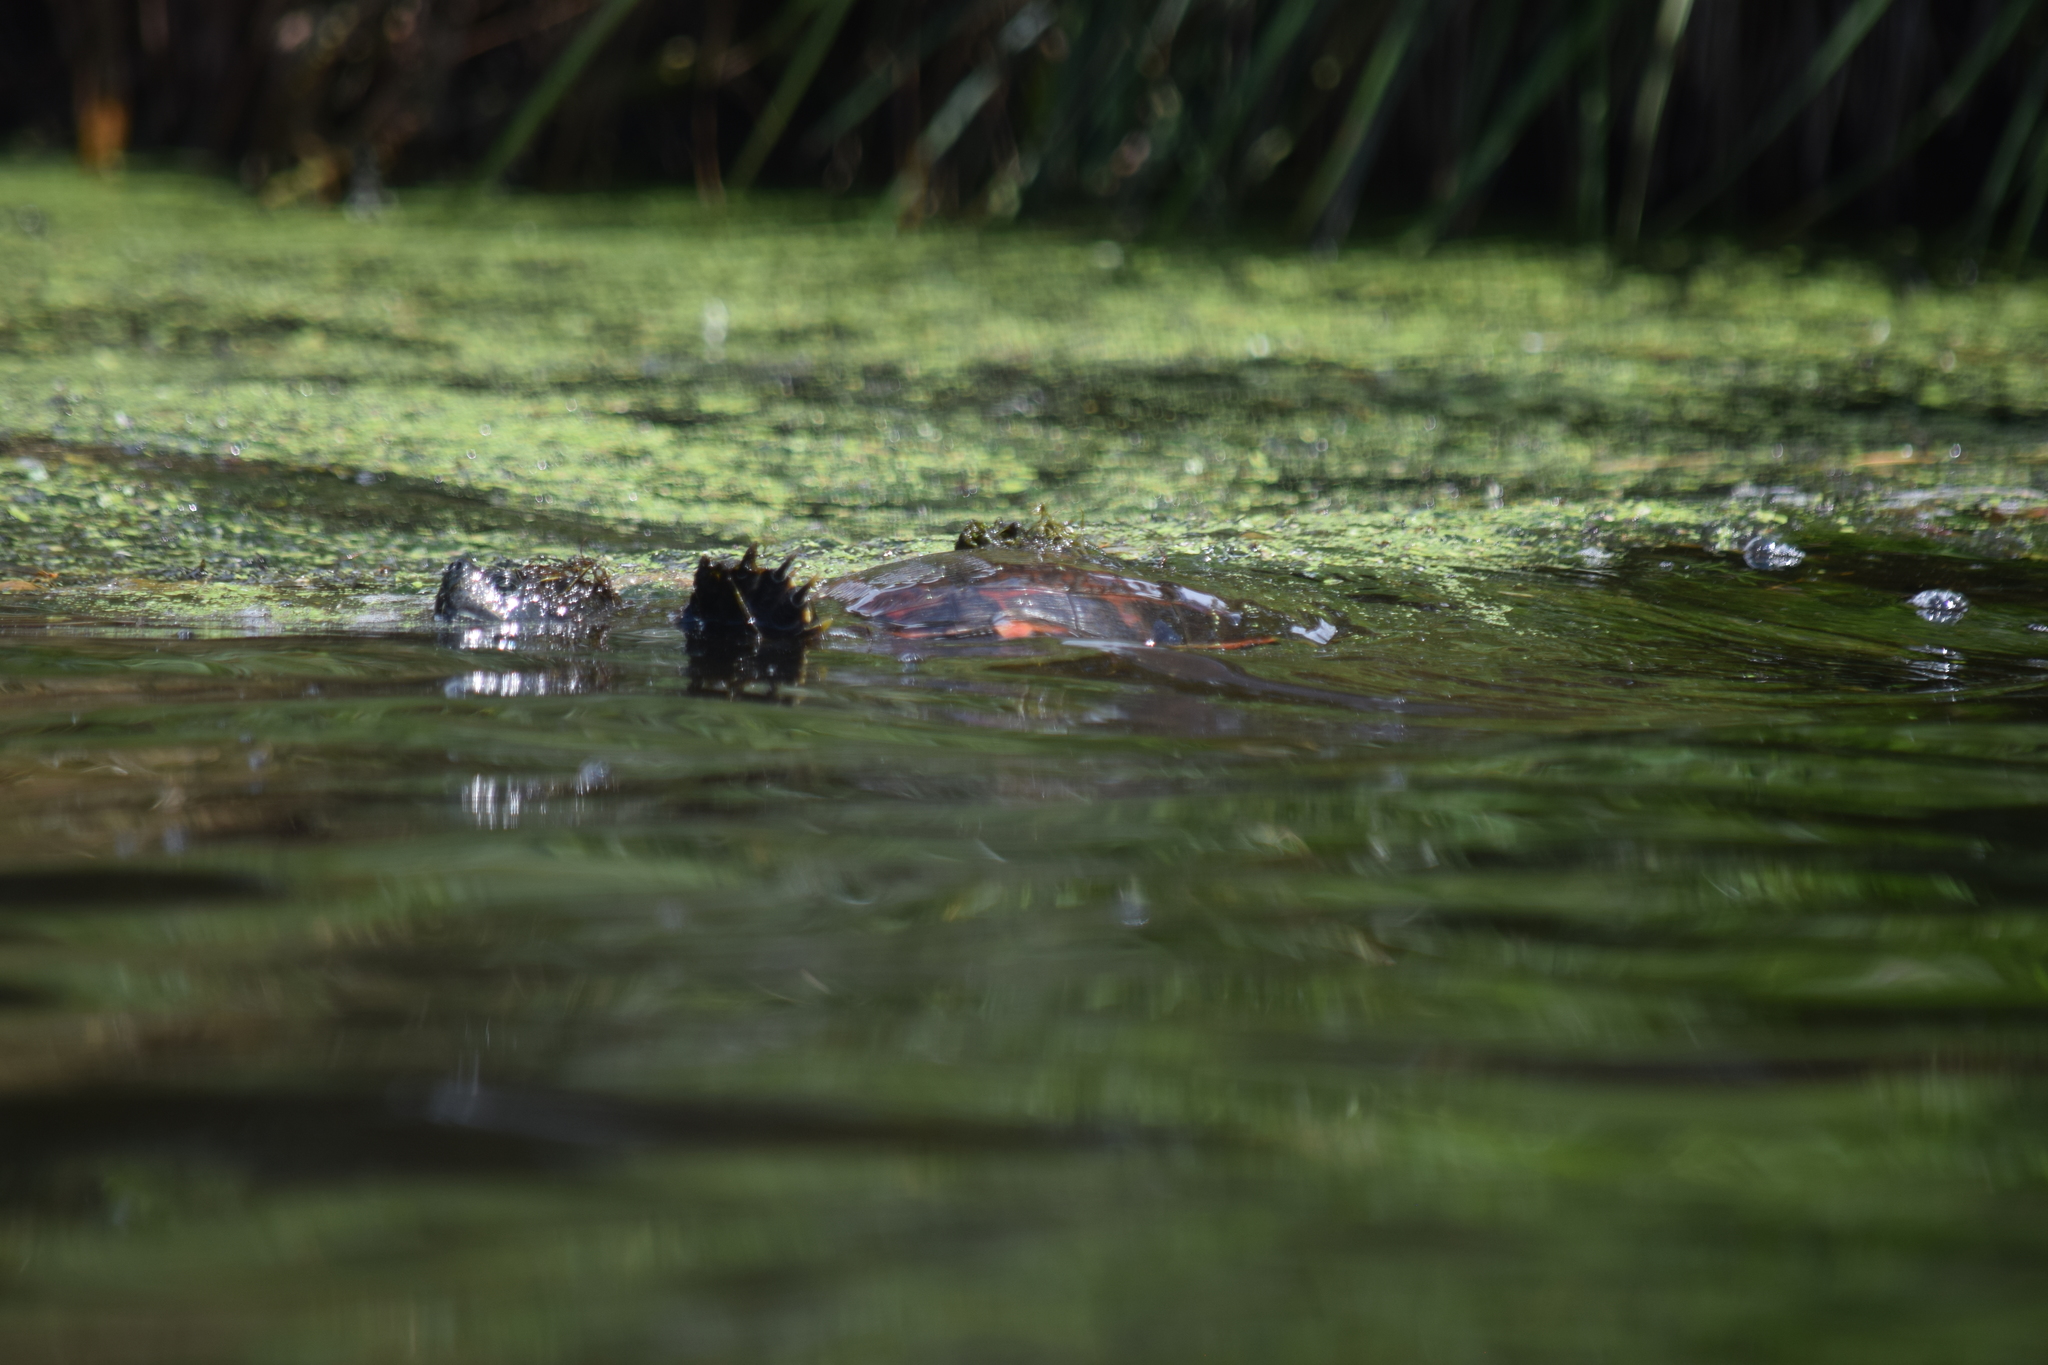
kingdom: Animalia
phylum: Chordata
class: Testudines
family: Emydidae
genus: Pseudemys
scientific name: Pseudemys rubriventris
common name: American red-bellied turtle
